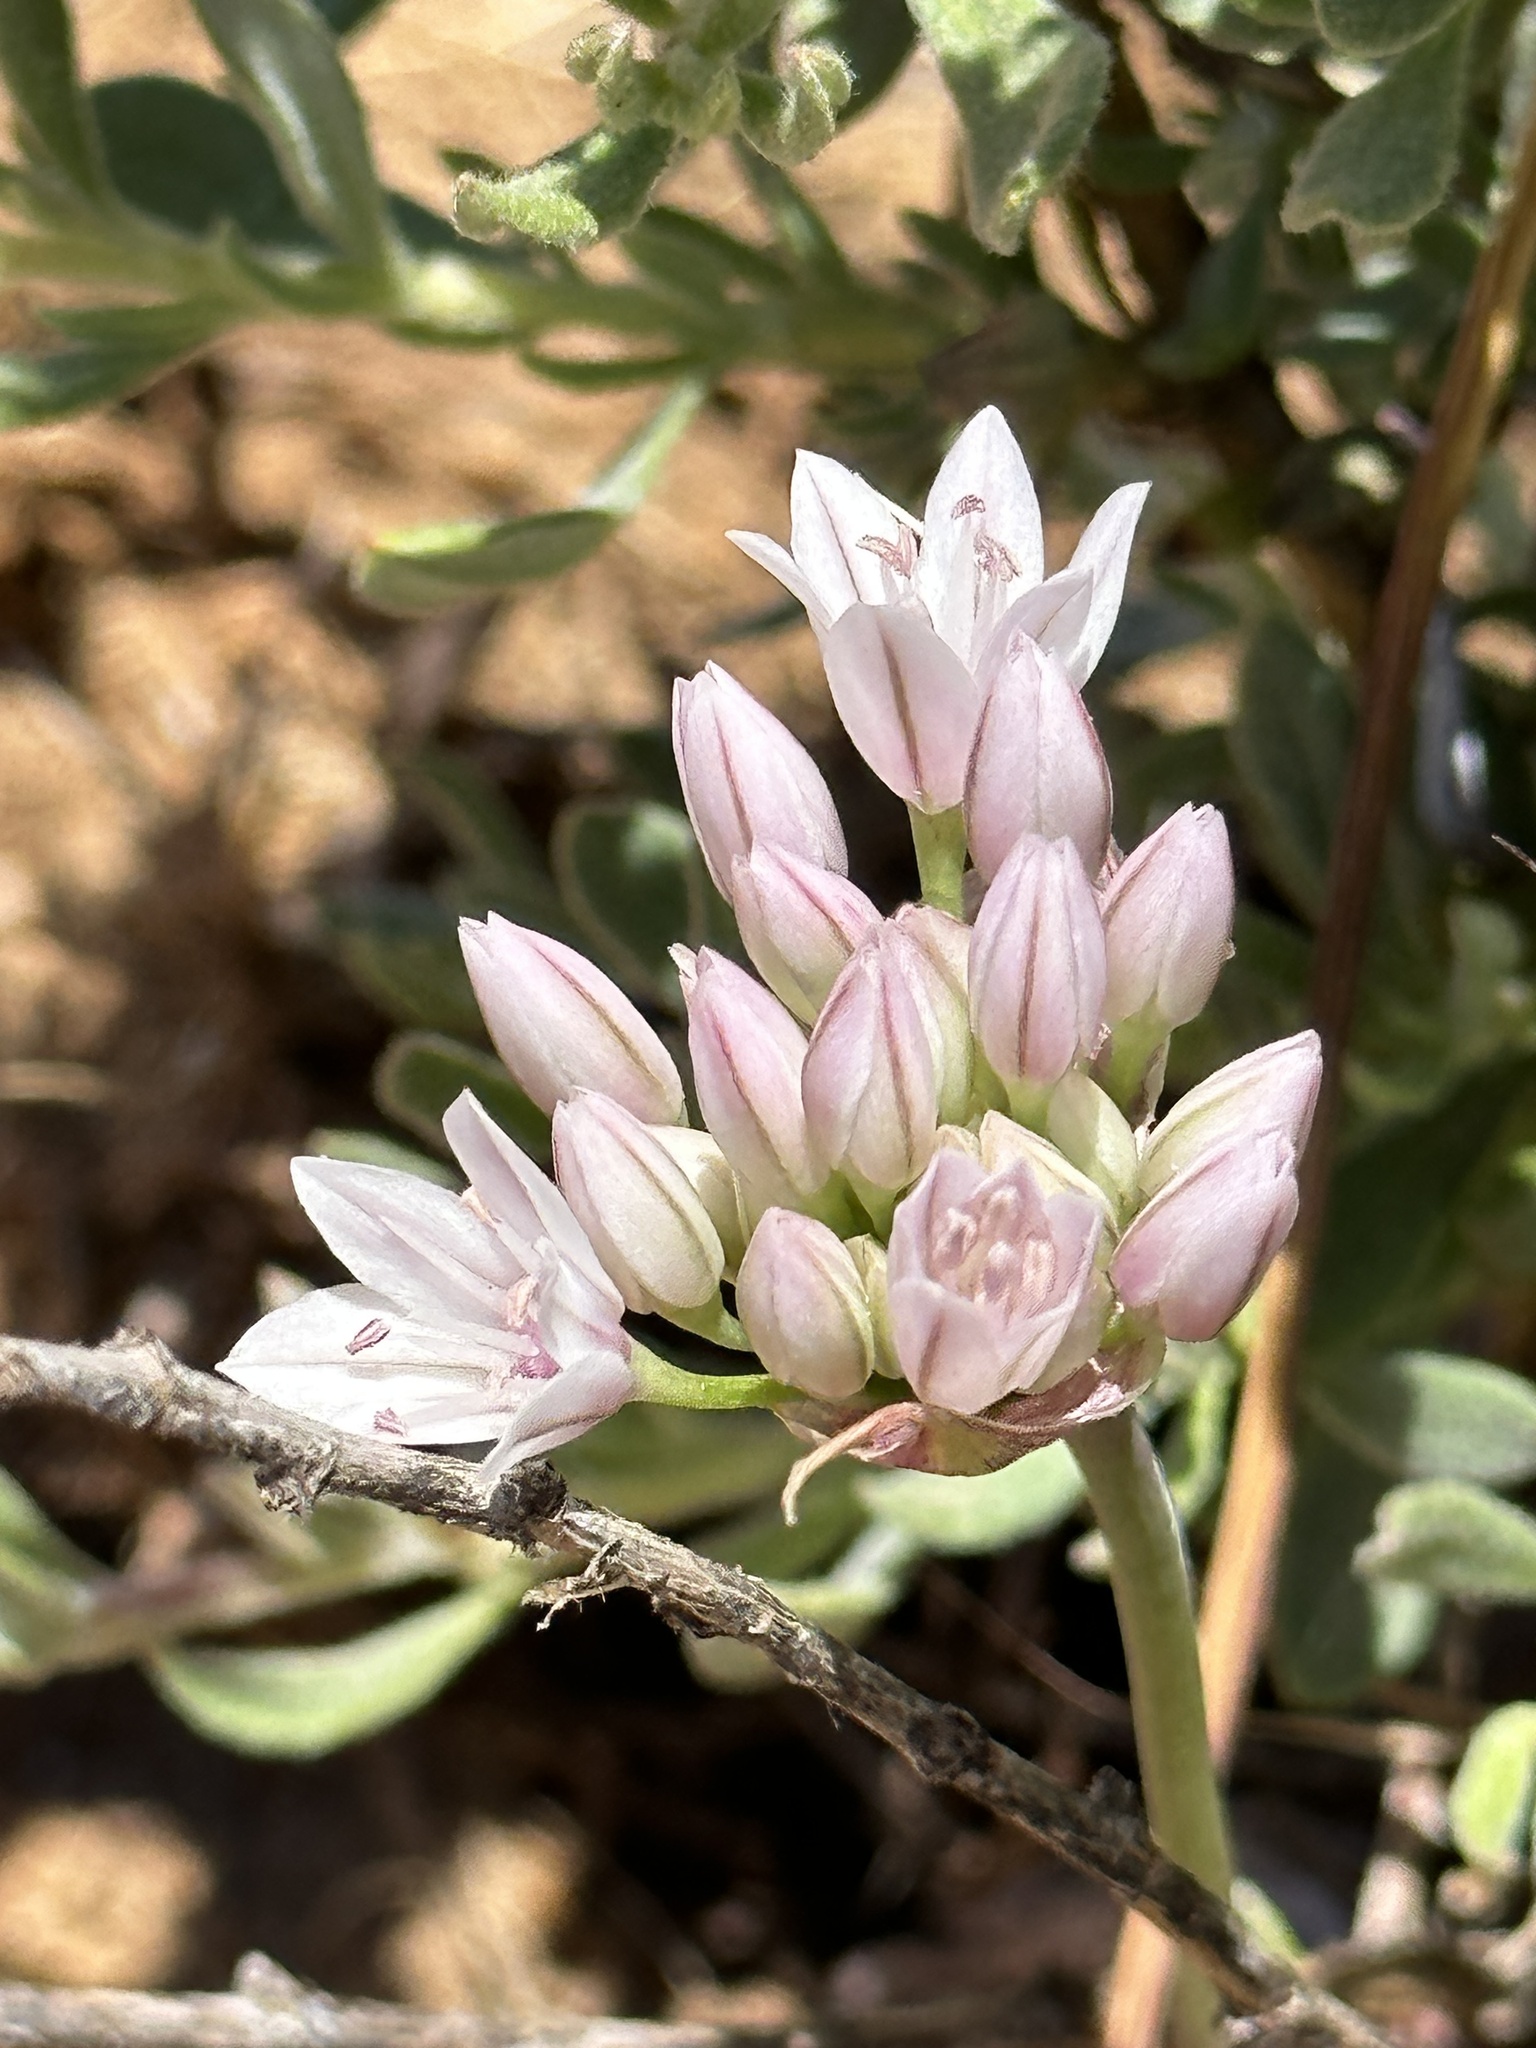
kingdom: Plantae
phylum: Tracheophyta
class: Liliopsida
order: Asparagales
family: Amaryllidaceae
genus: Allium
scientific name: Allium parryi
